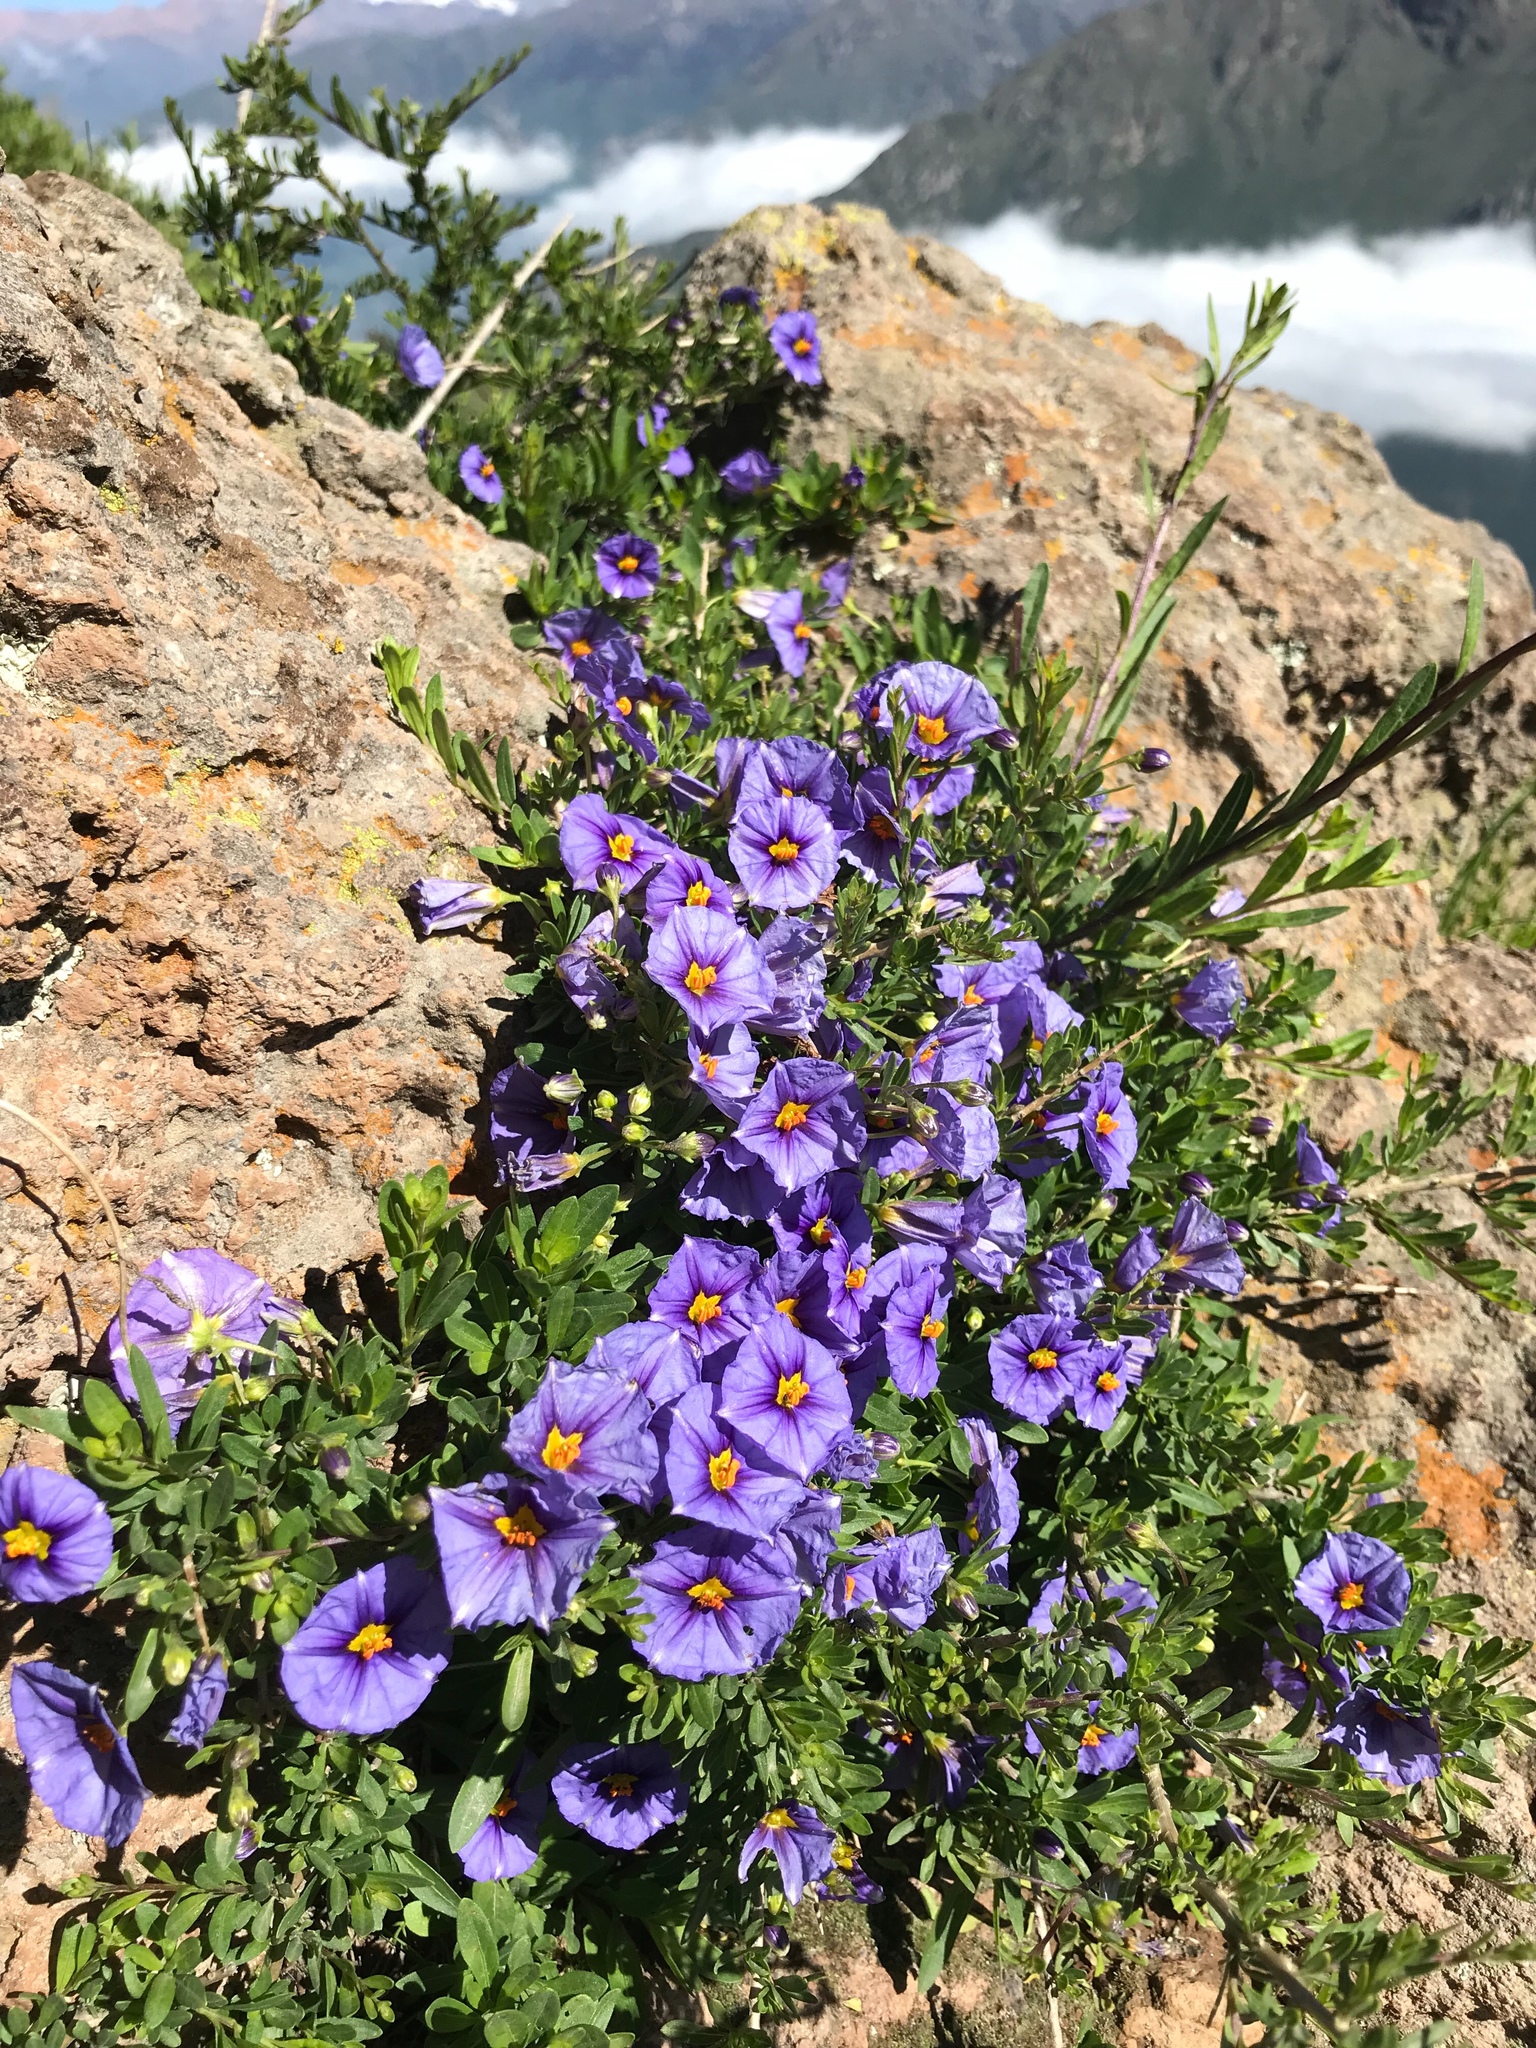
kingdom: Plantae
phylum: Tracheophyta
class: Magnoliopsida
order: Solanales
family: Solanaceae
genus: Lycianthes
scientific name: Lycianthes lycioides
